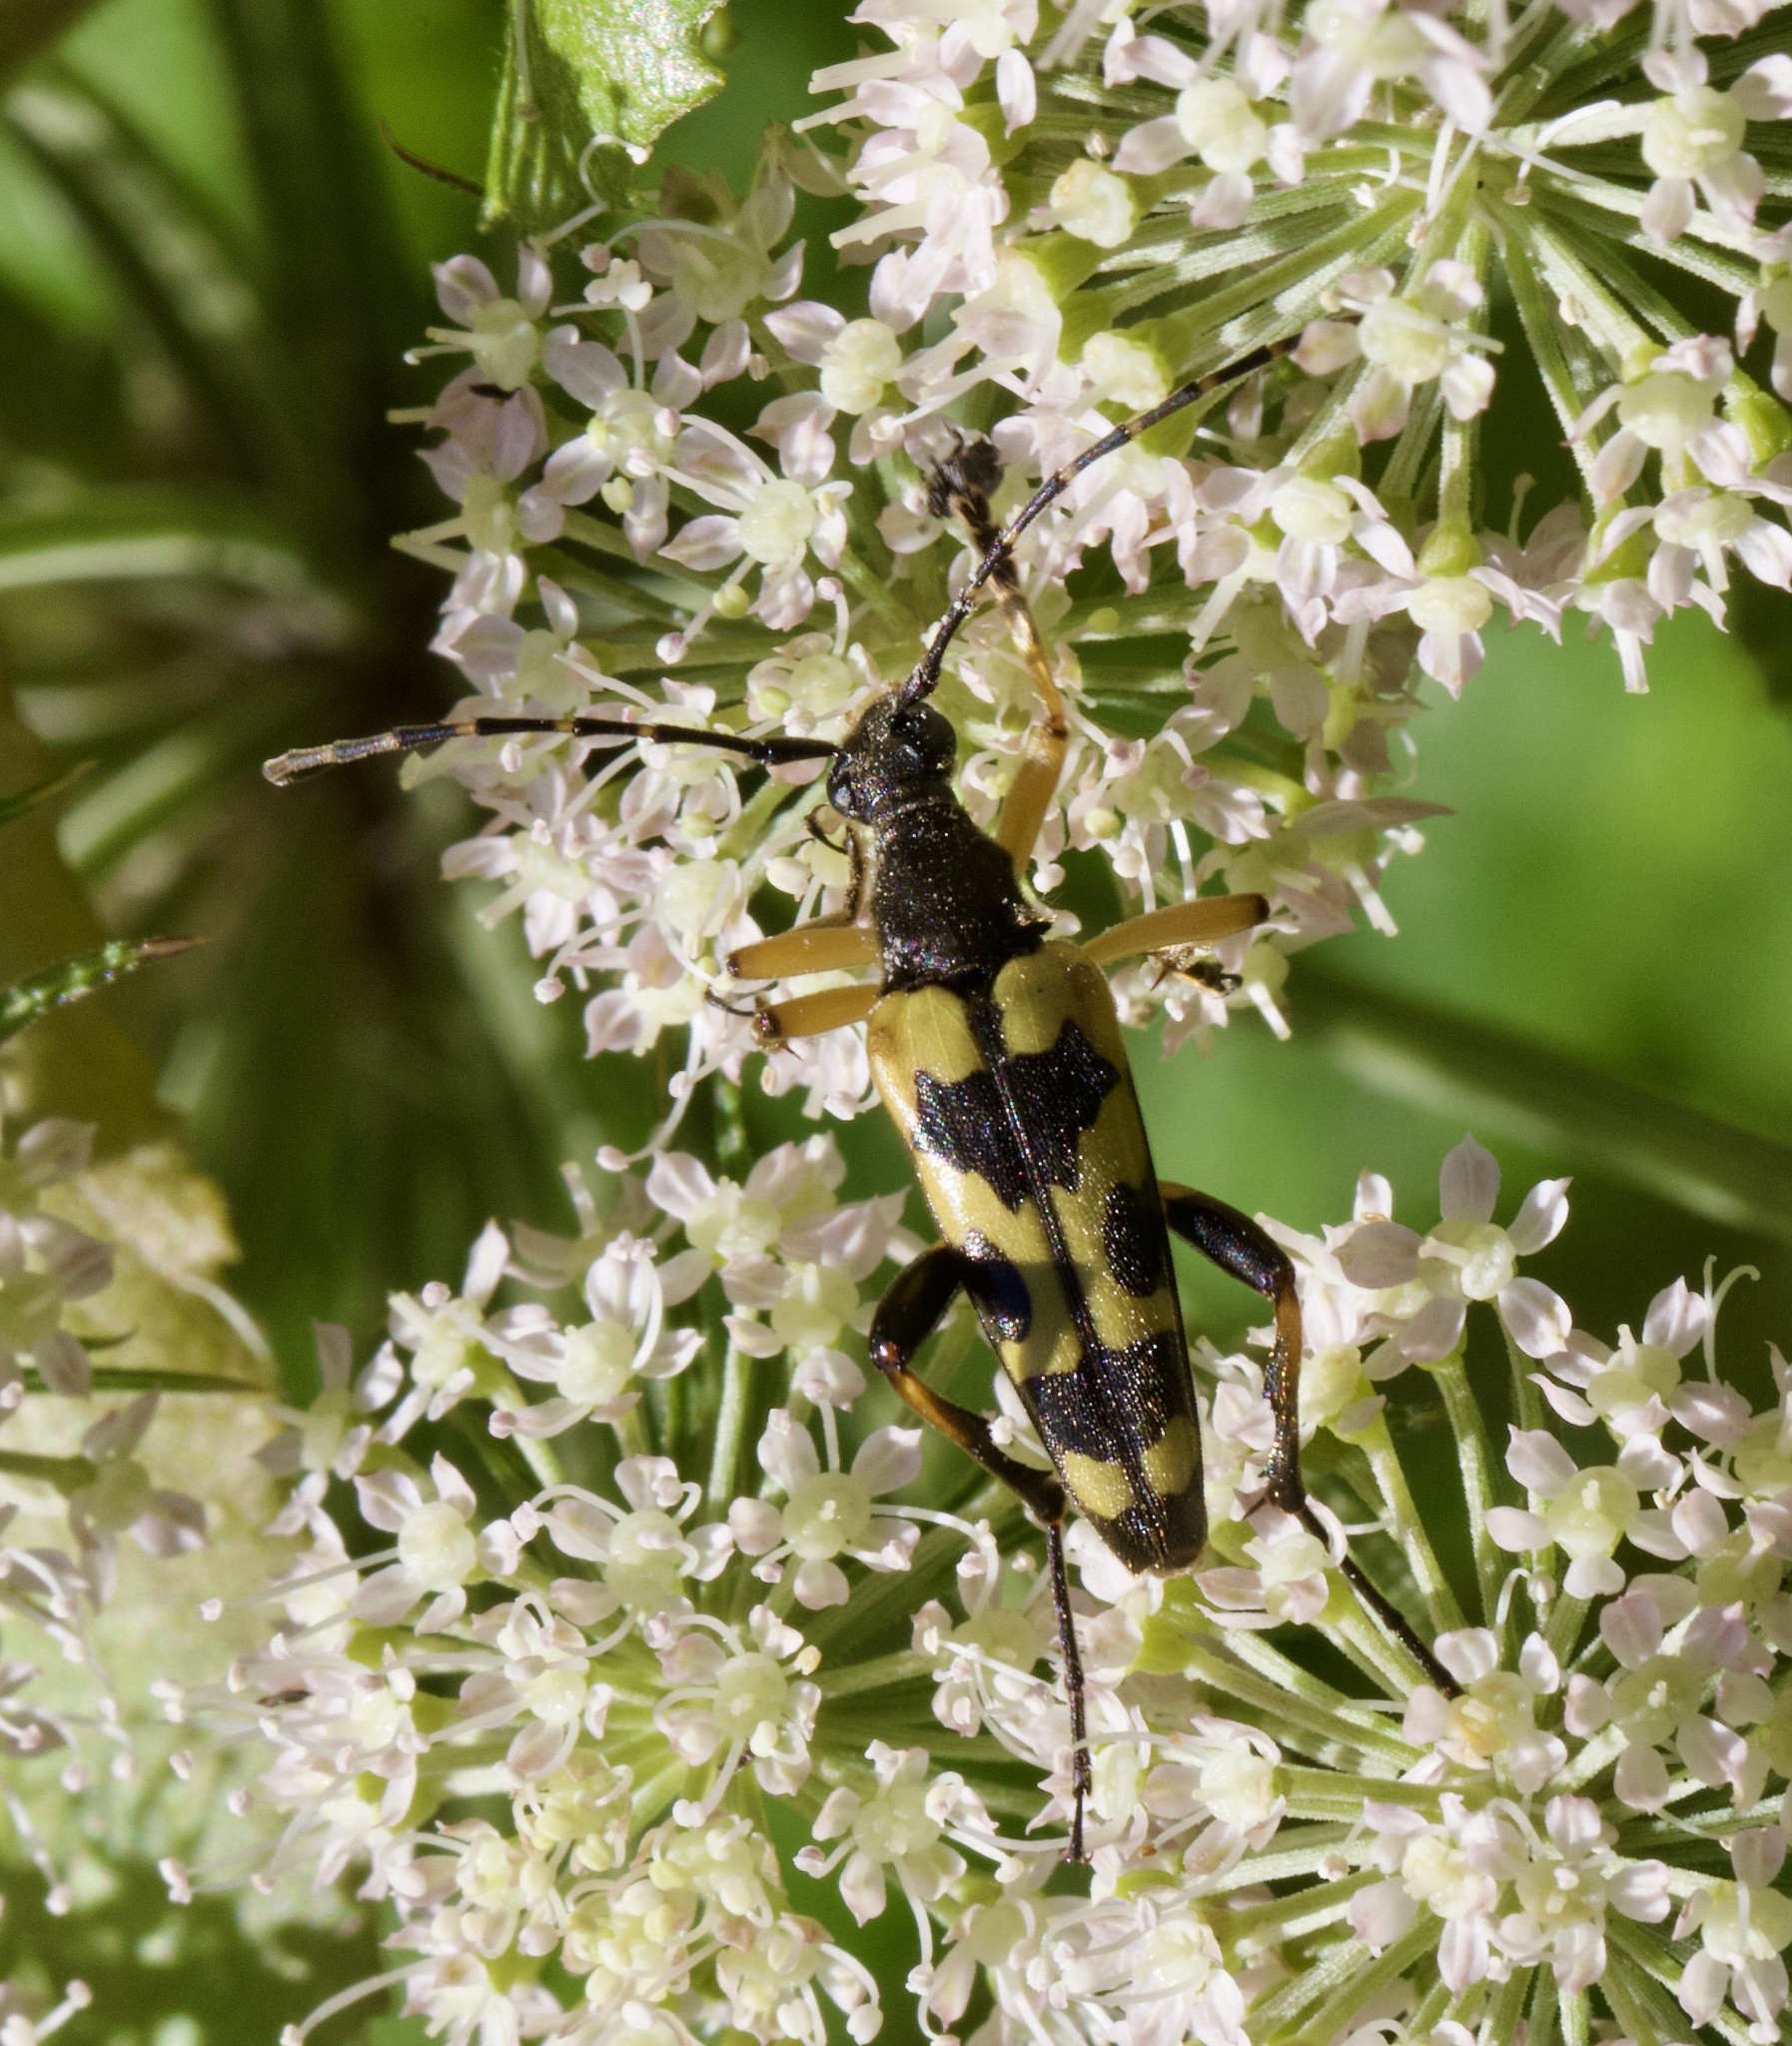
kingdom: Animalia
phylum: Arthropoda
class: Insecta
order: Coleoptera
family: Cerambycidae
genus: Rutpela
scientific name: Rutpela maculata
